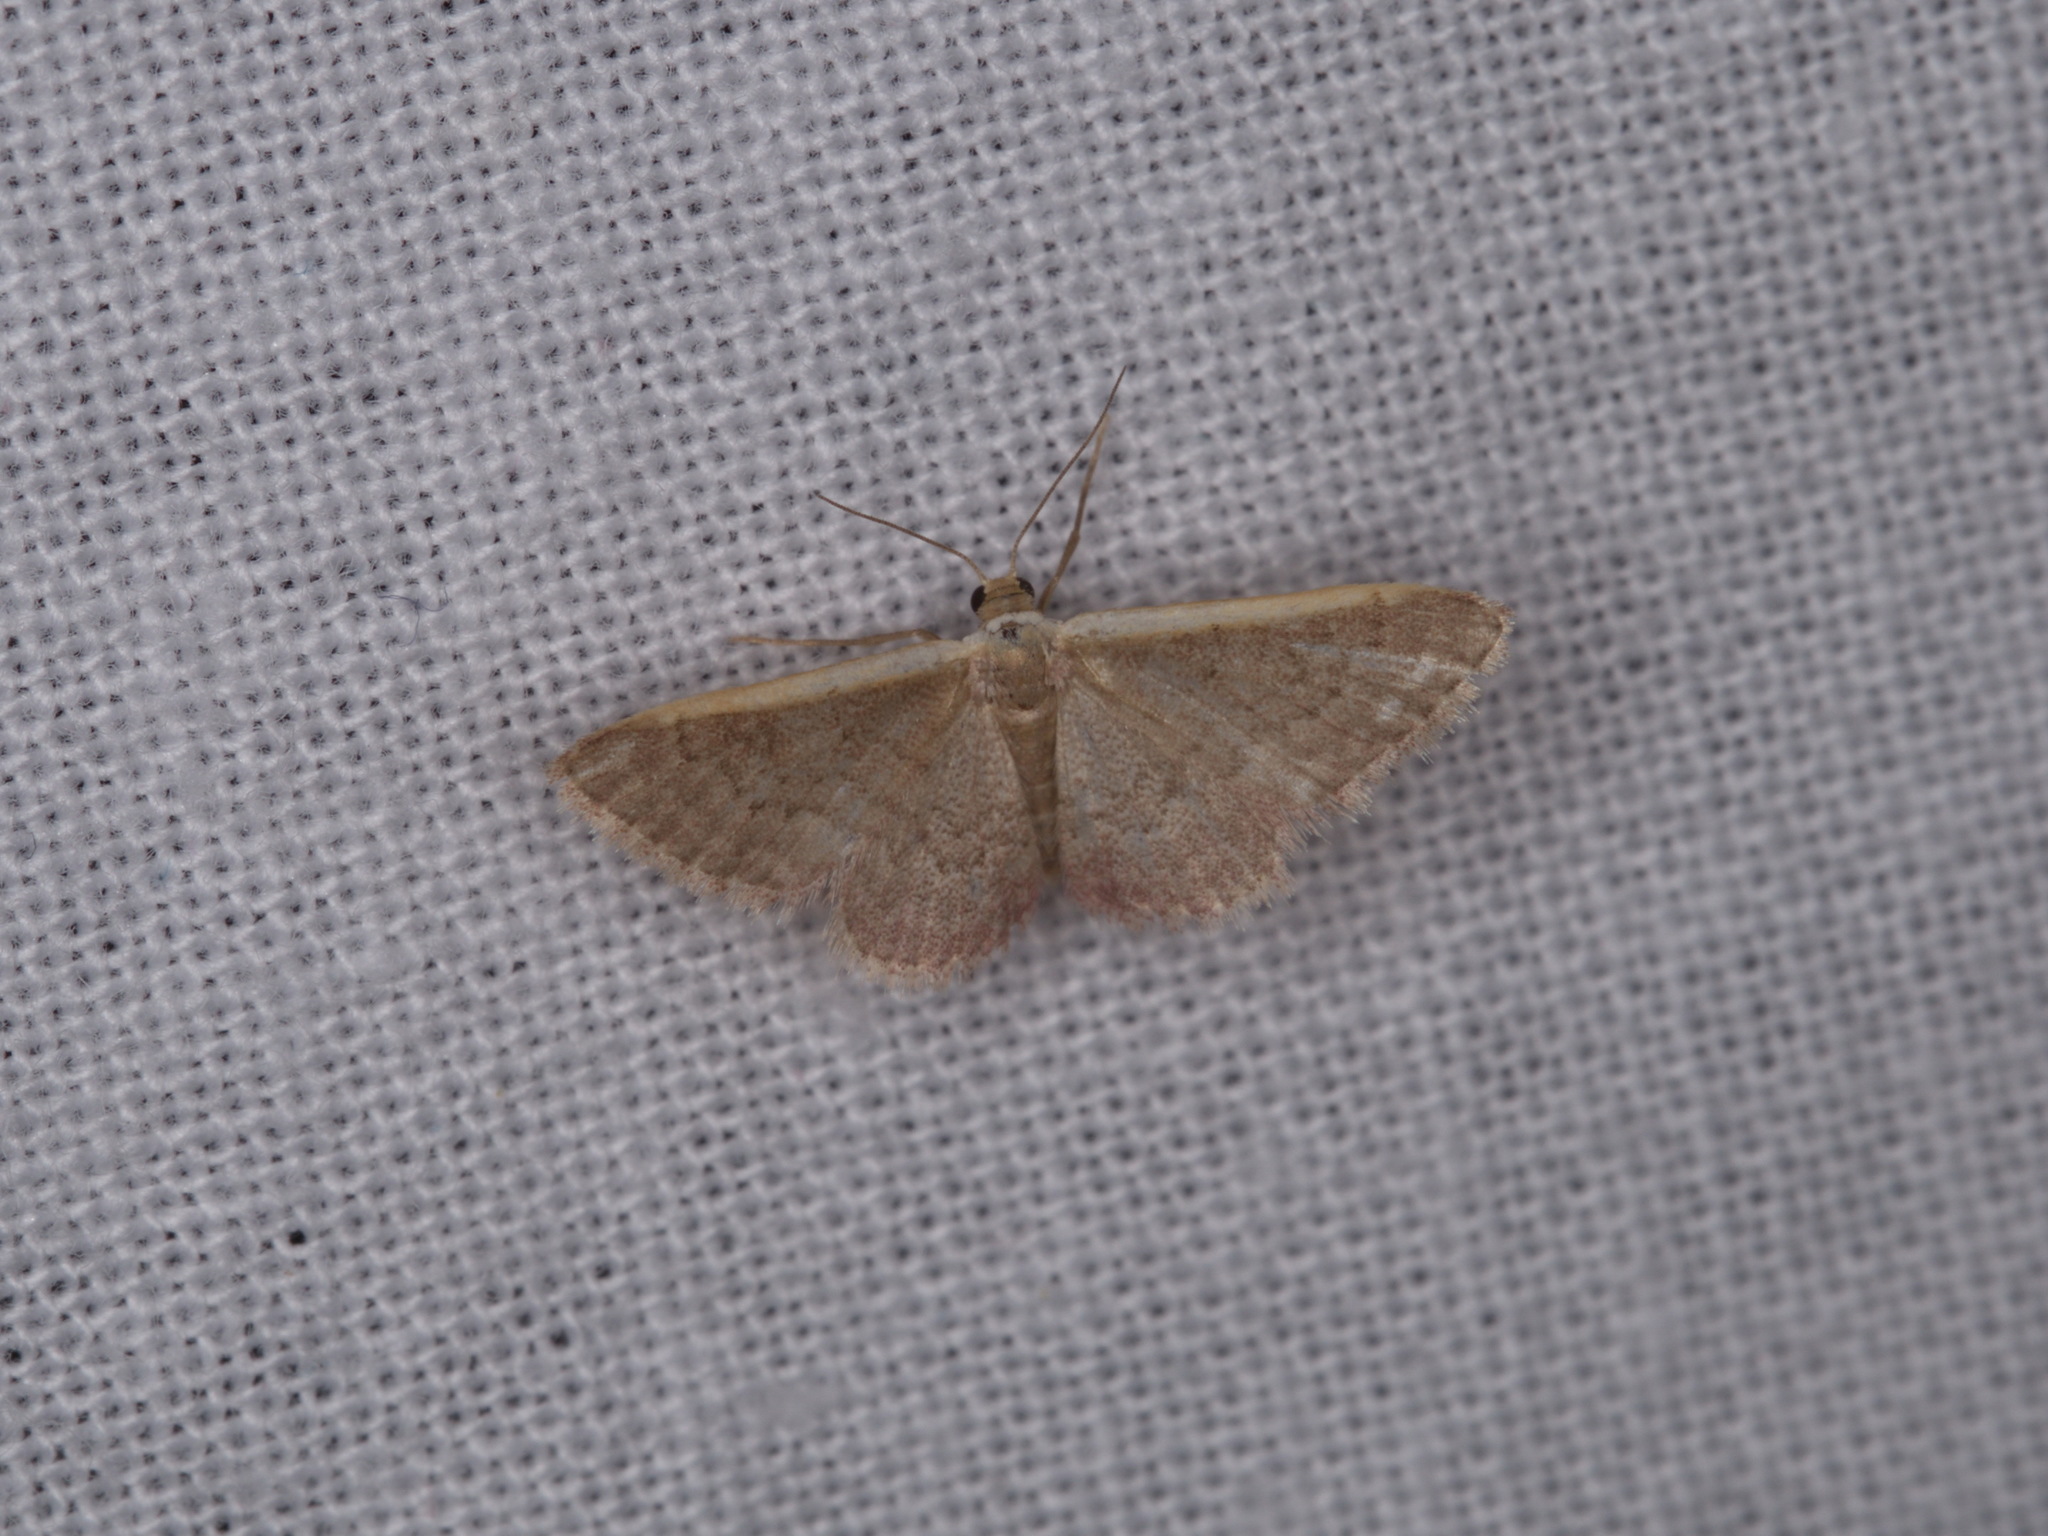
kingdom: Animalia
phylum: Arthropoda
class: Insecta
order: Lepidoptera
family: Geometridae
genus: Idaea
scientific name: Idaea inversata
